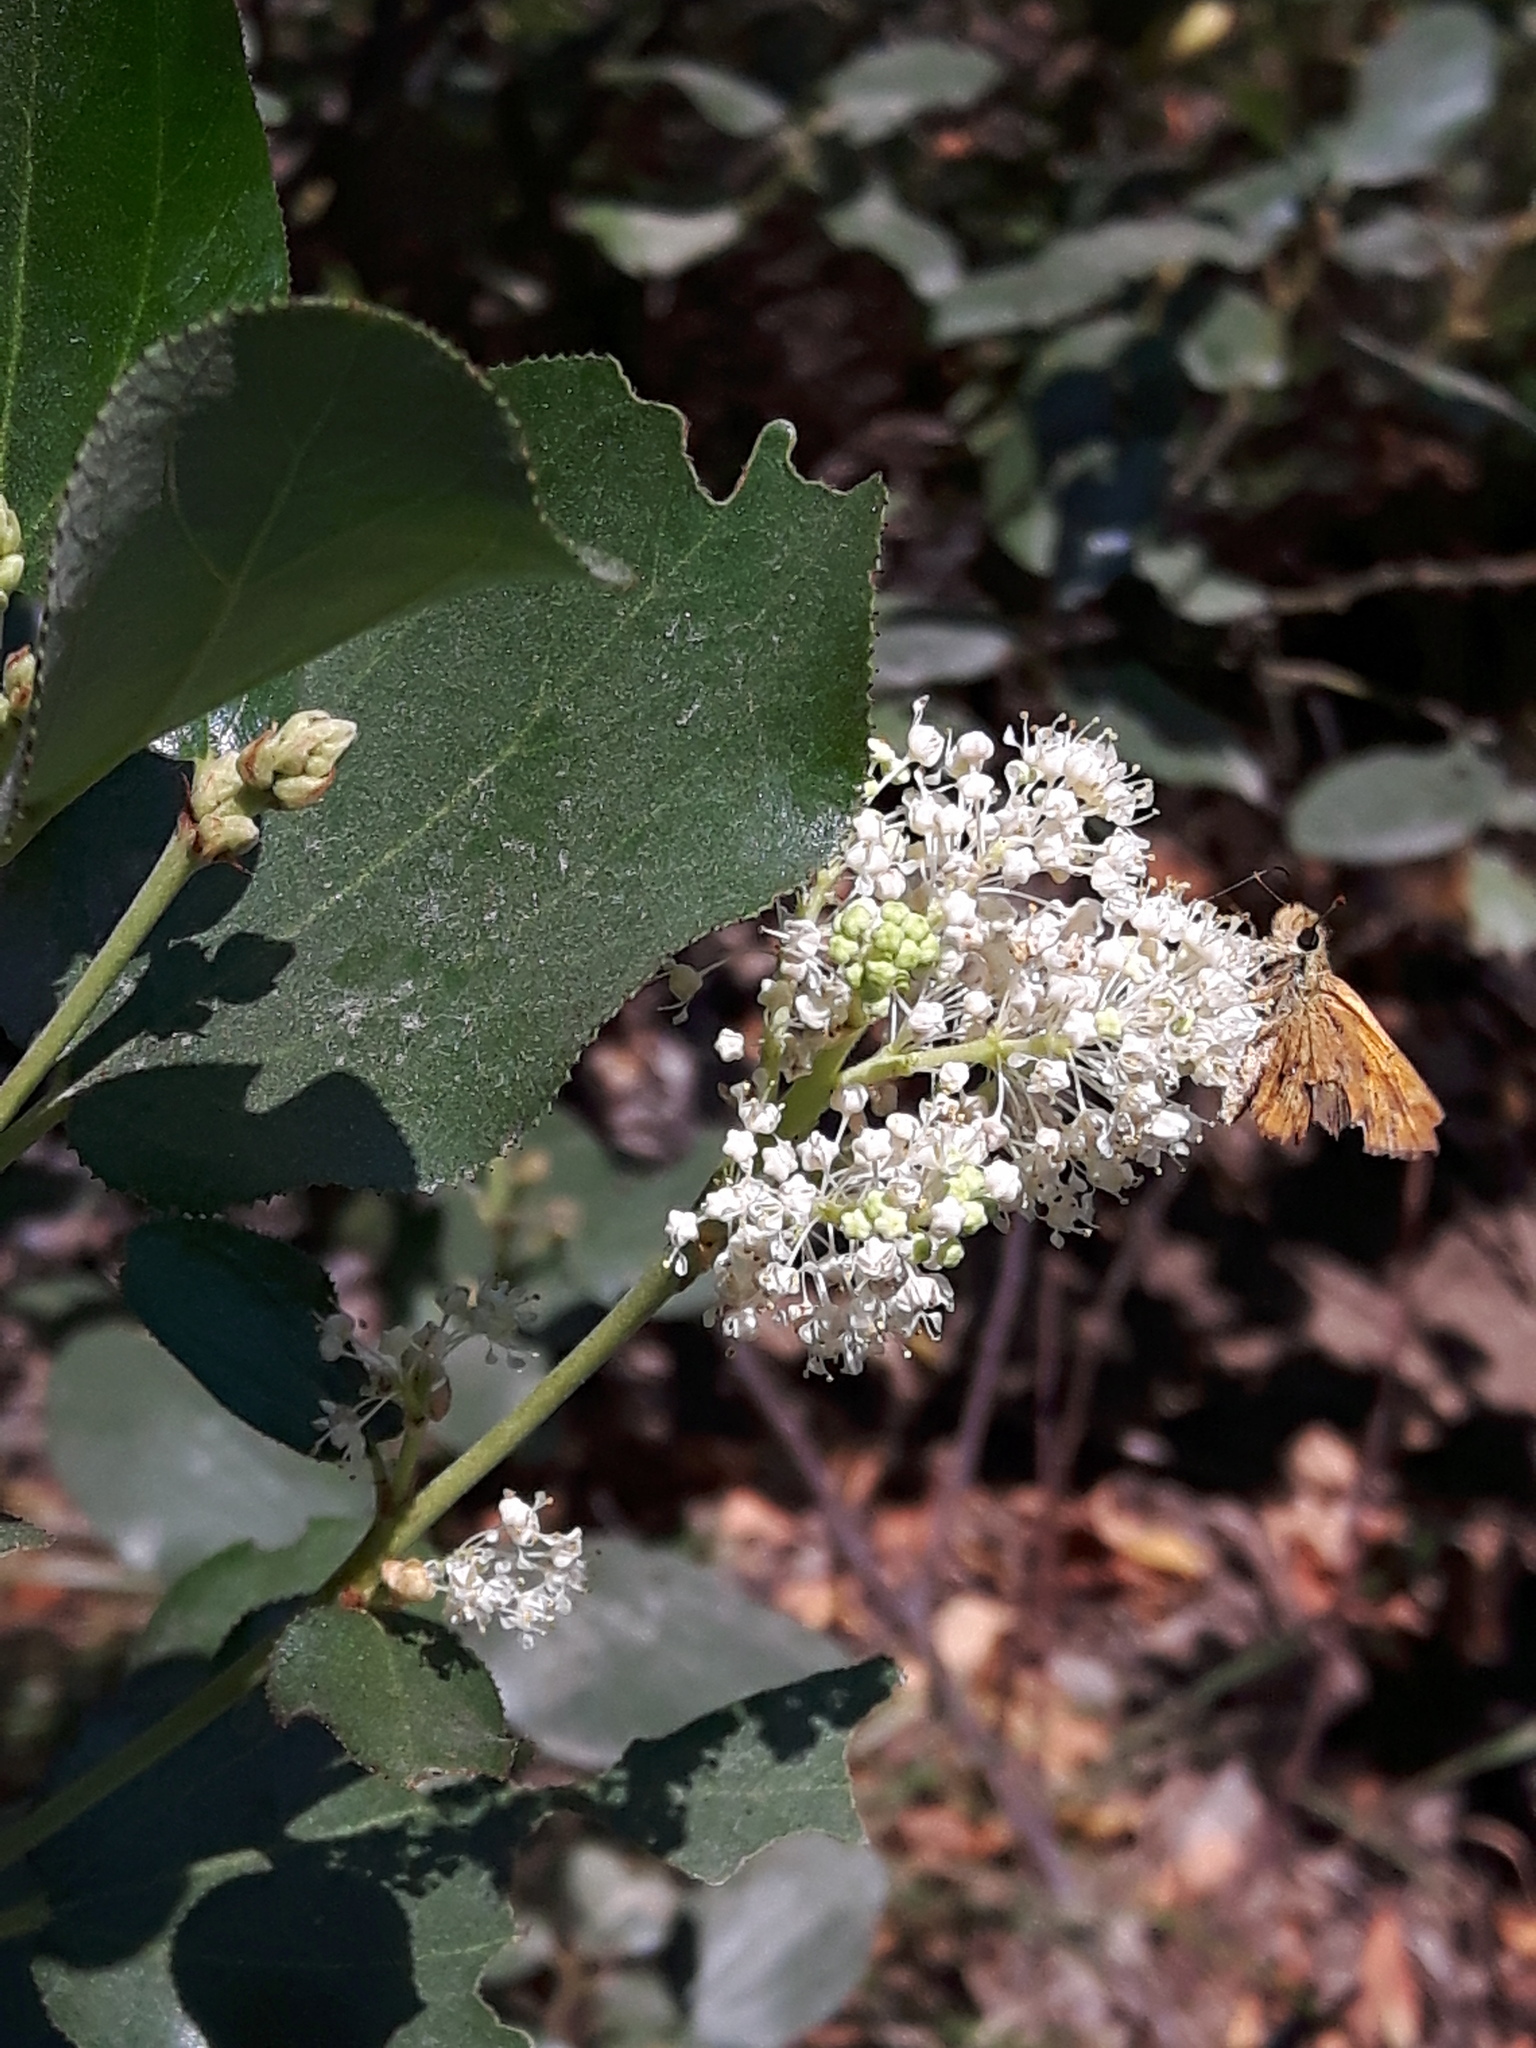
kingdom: Plantae
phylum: Tracheophyta
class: Magnoliopsida
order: Rosales
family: Rhamnaceae
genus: Ceanothus
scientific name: Ceanothus velutinus
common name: Snowbrush
